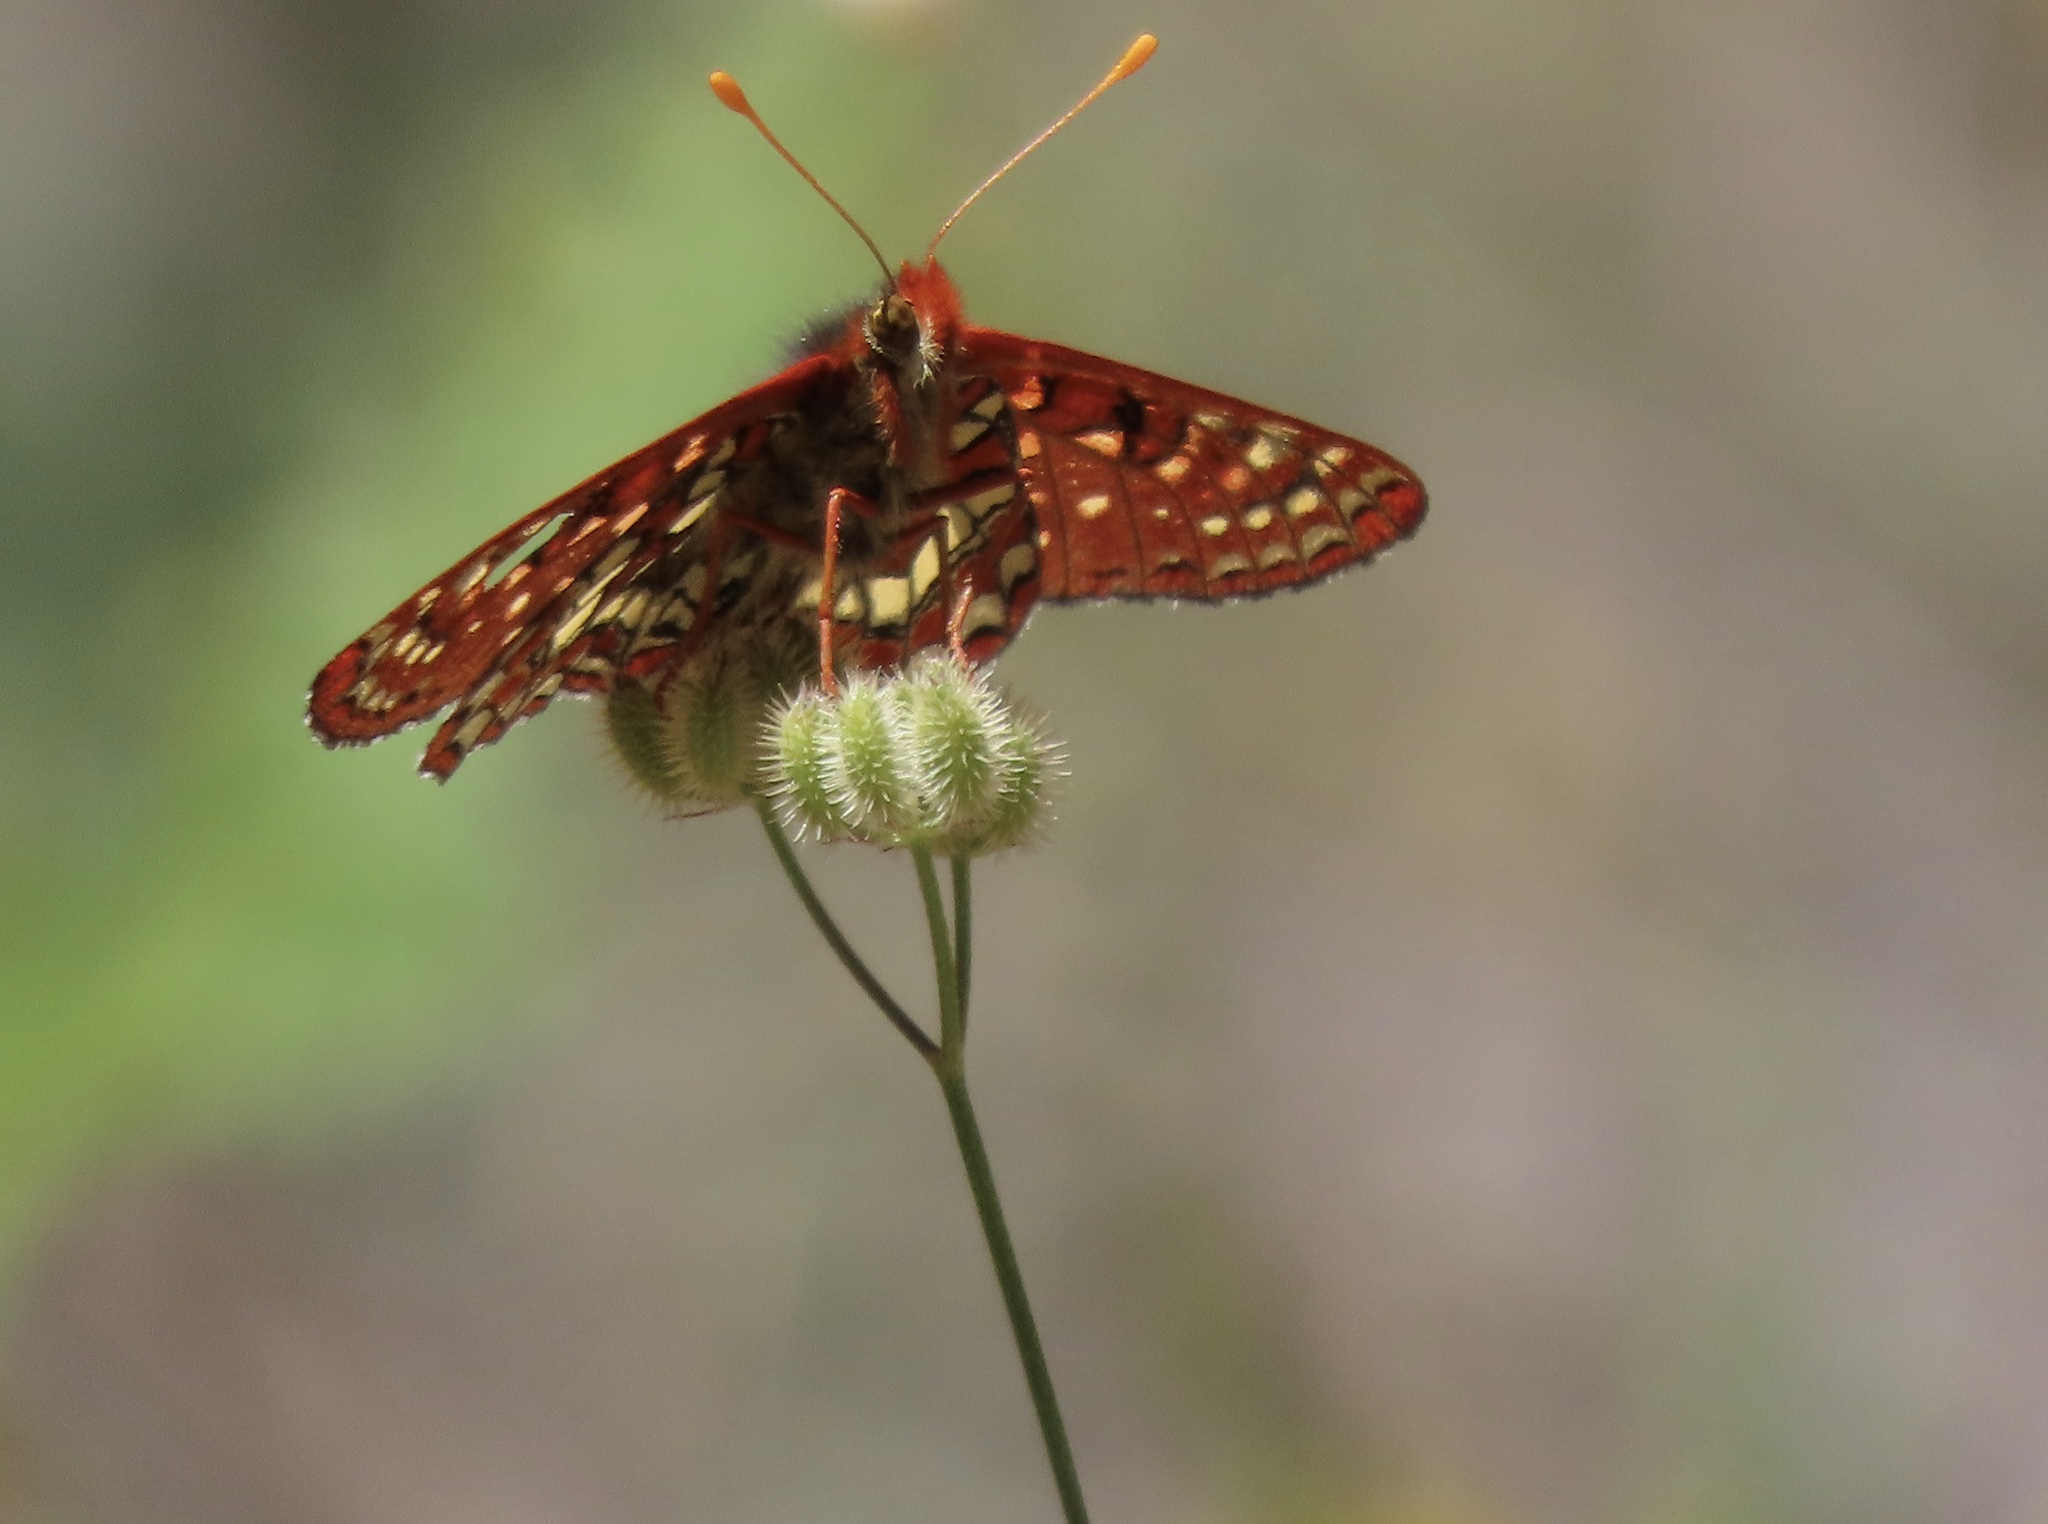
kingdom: Animalia
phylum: Arthropoda
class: Insecta
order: Lepidoptera
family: Nymphalidae
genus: Occidryas
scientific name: Occidryas chalcedona
